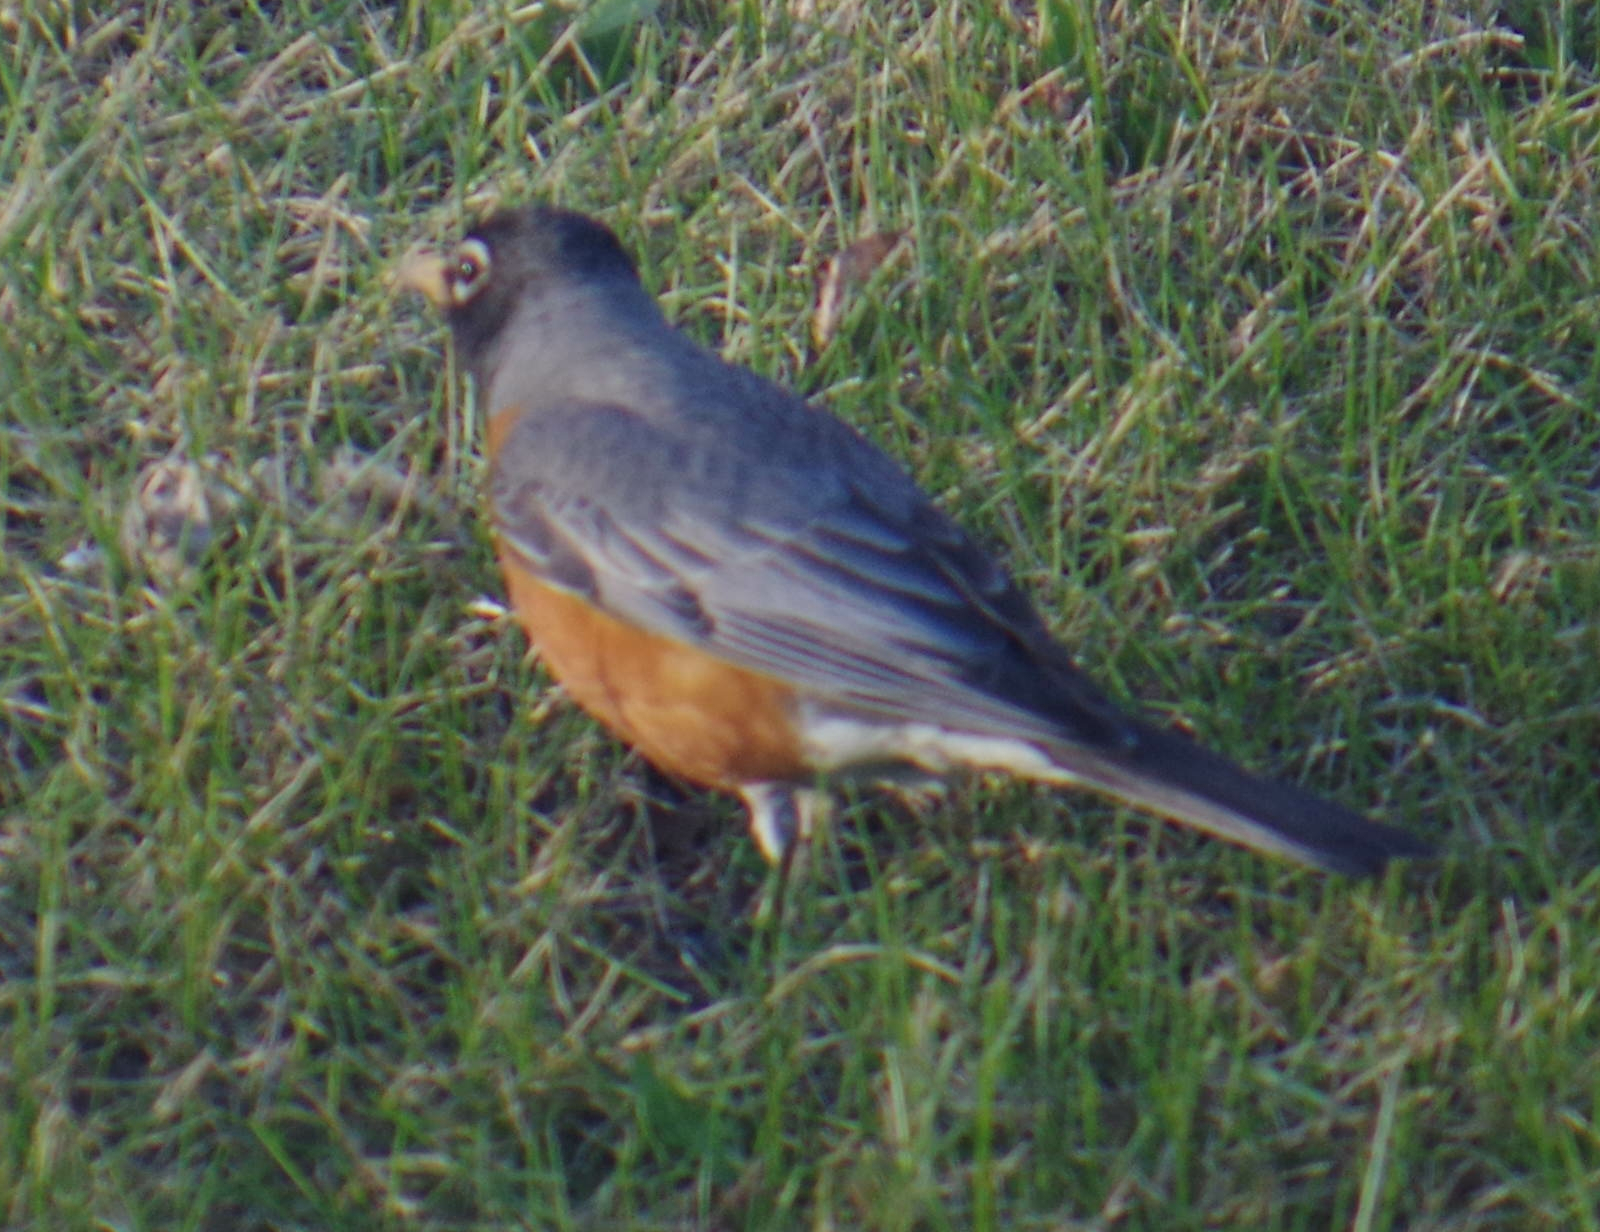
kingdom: Animalia
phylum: Chordata
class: Aves
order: Passeriformes
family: Turdidae
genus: Turdus
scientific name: Turdus migratorius
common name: American robin
